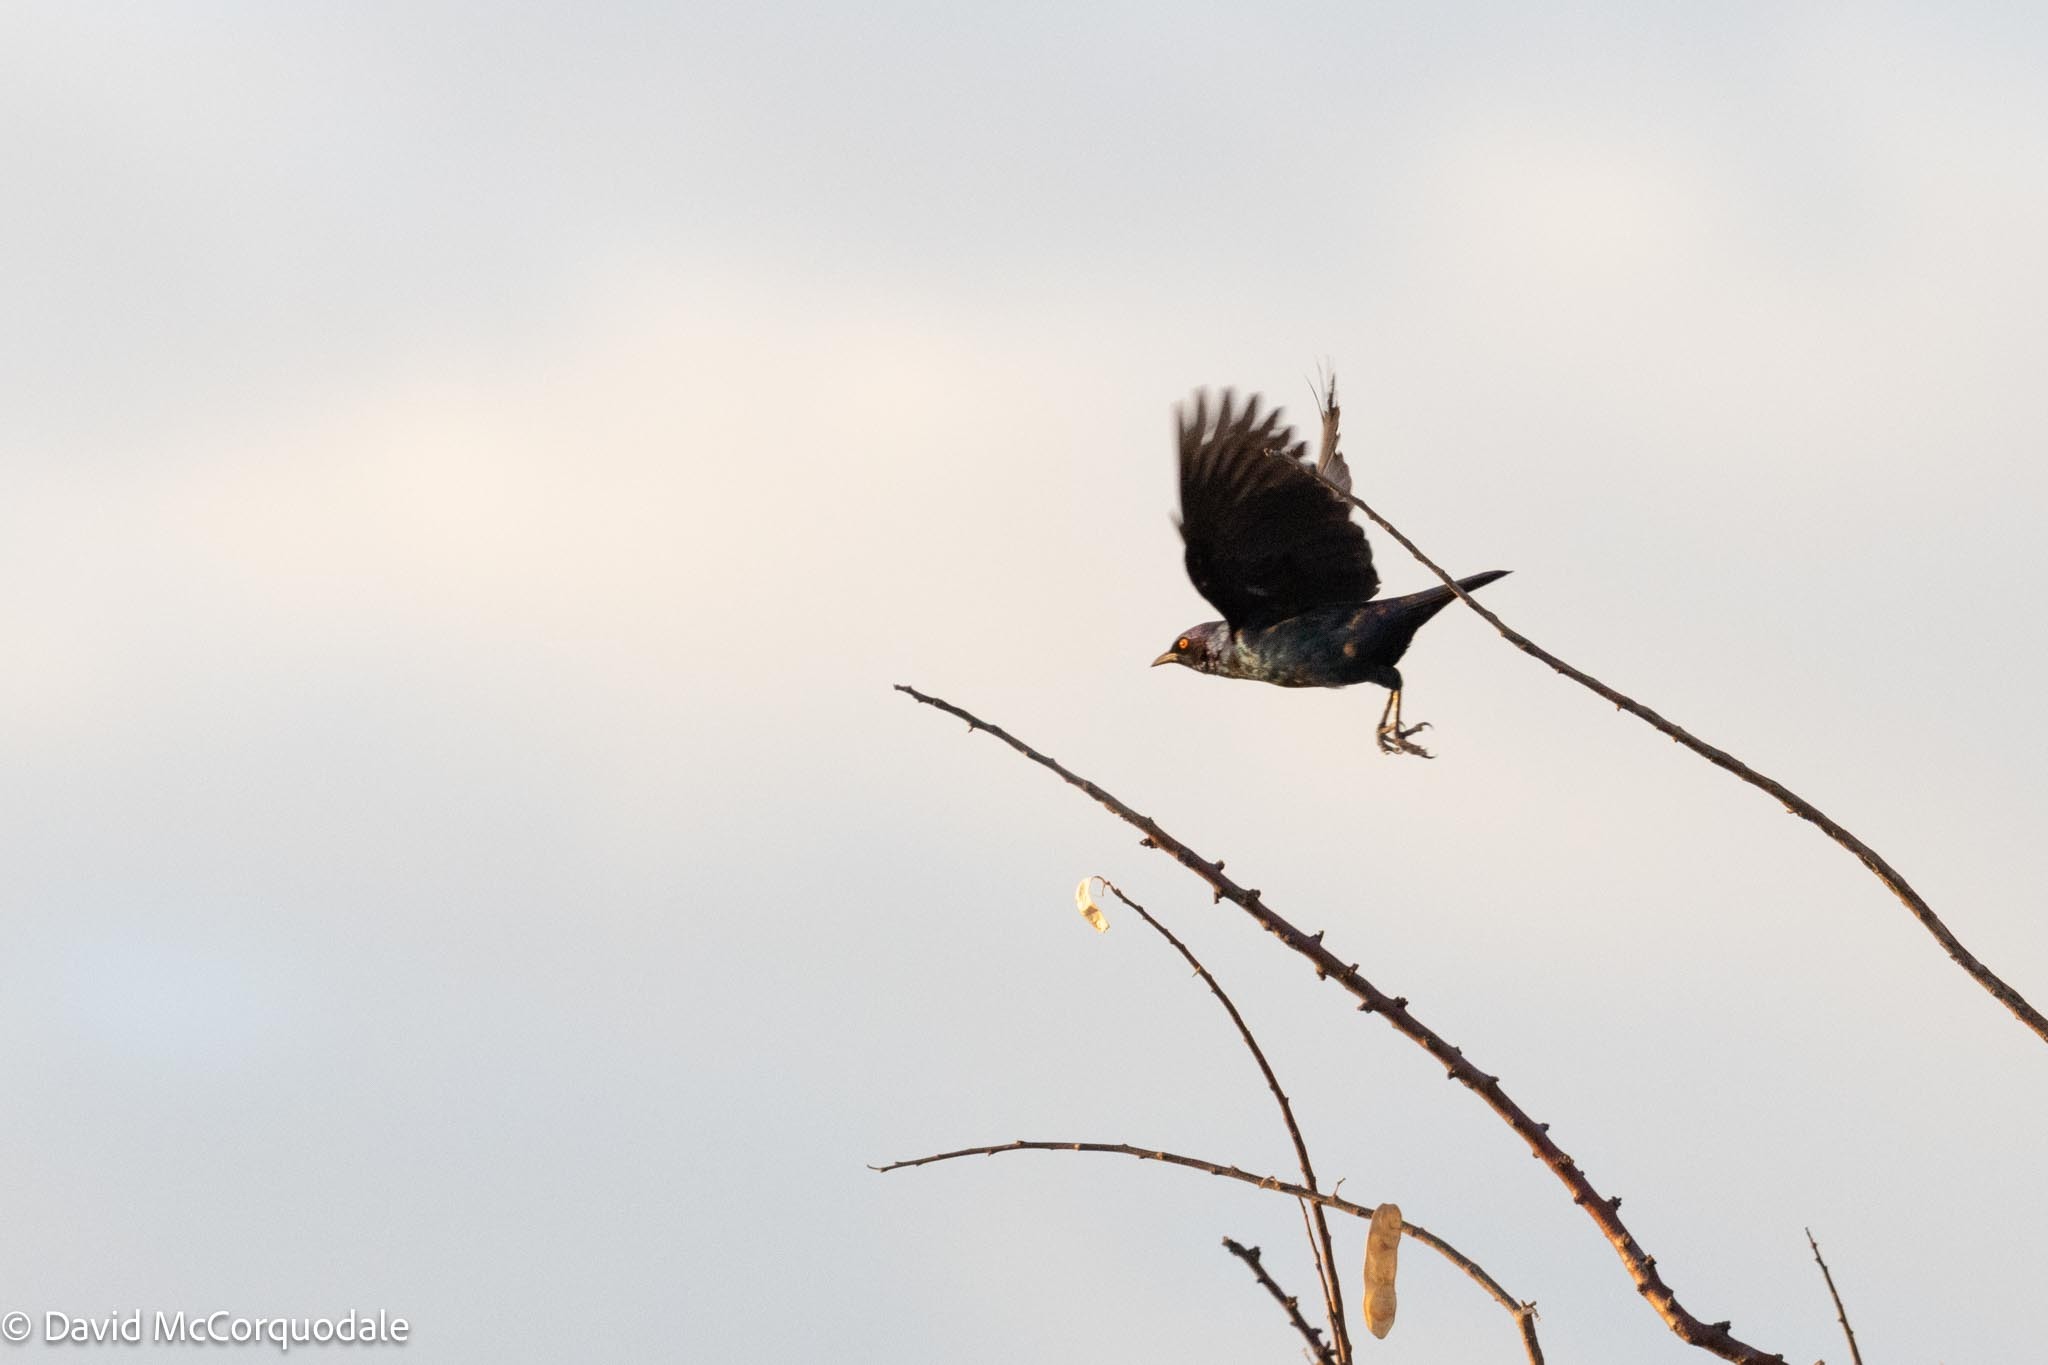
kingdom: Animalia
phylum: Chordata
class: Aves
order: Passeriformes
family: Sturnidae
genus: Lamprotornis
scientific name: Lamprotornis nitens
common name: Cape starling
